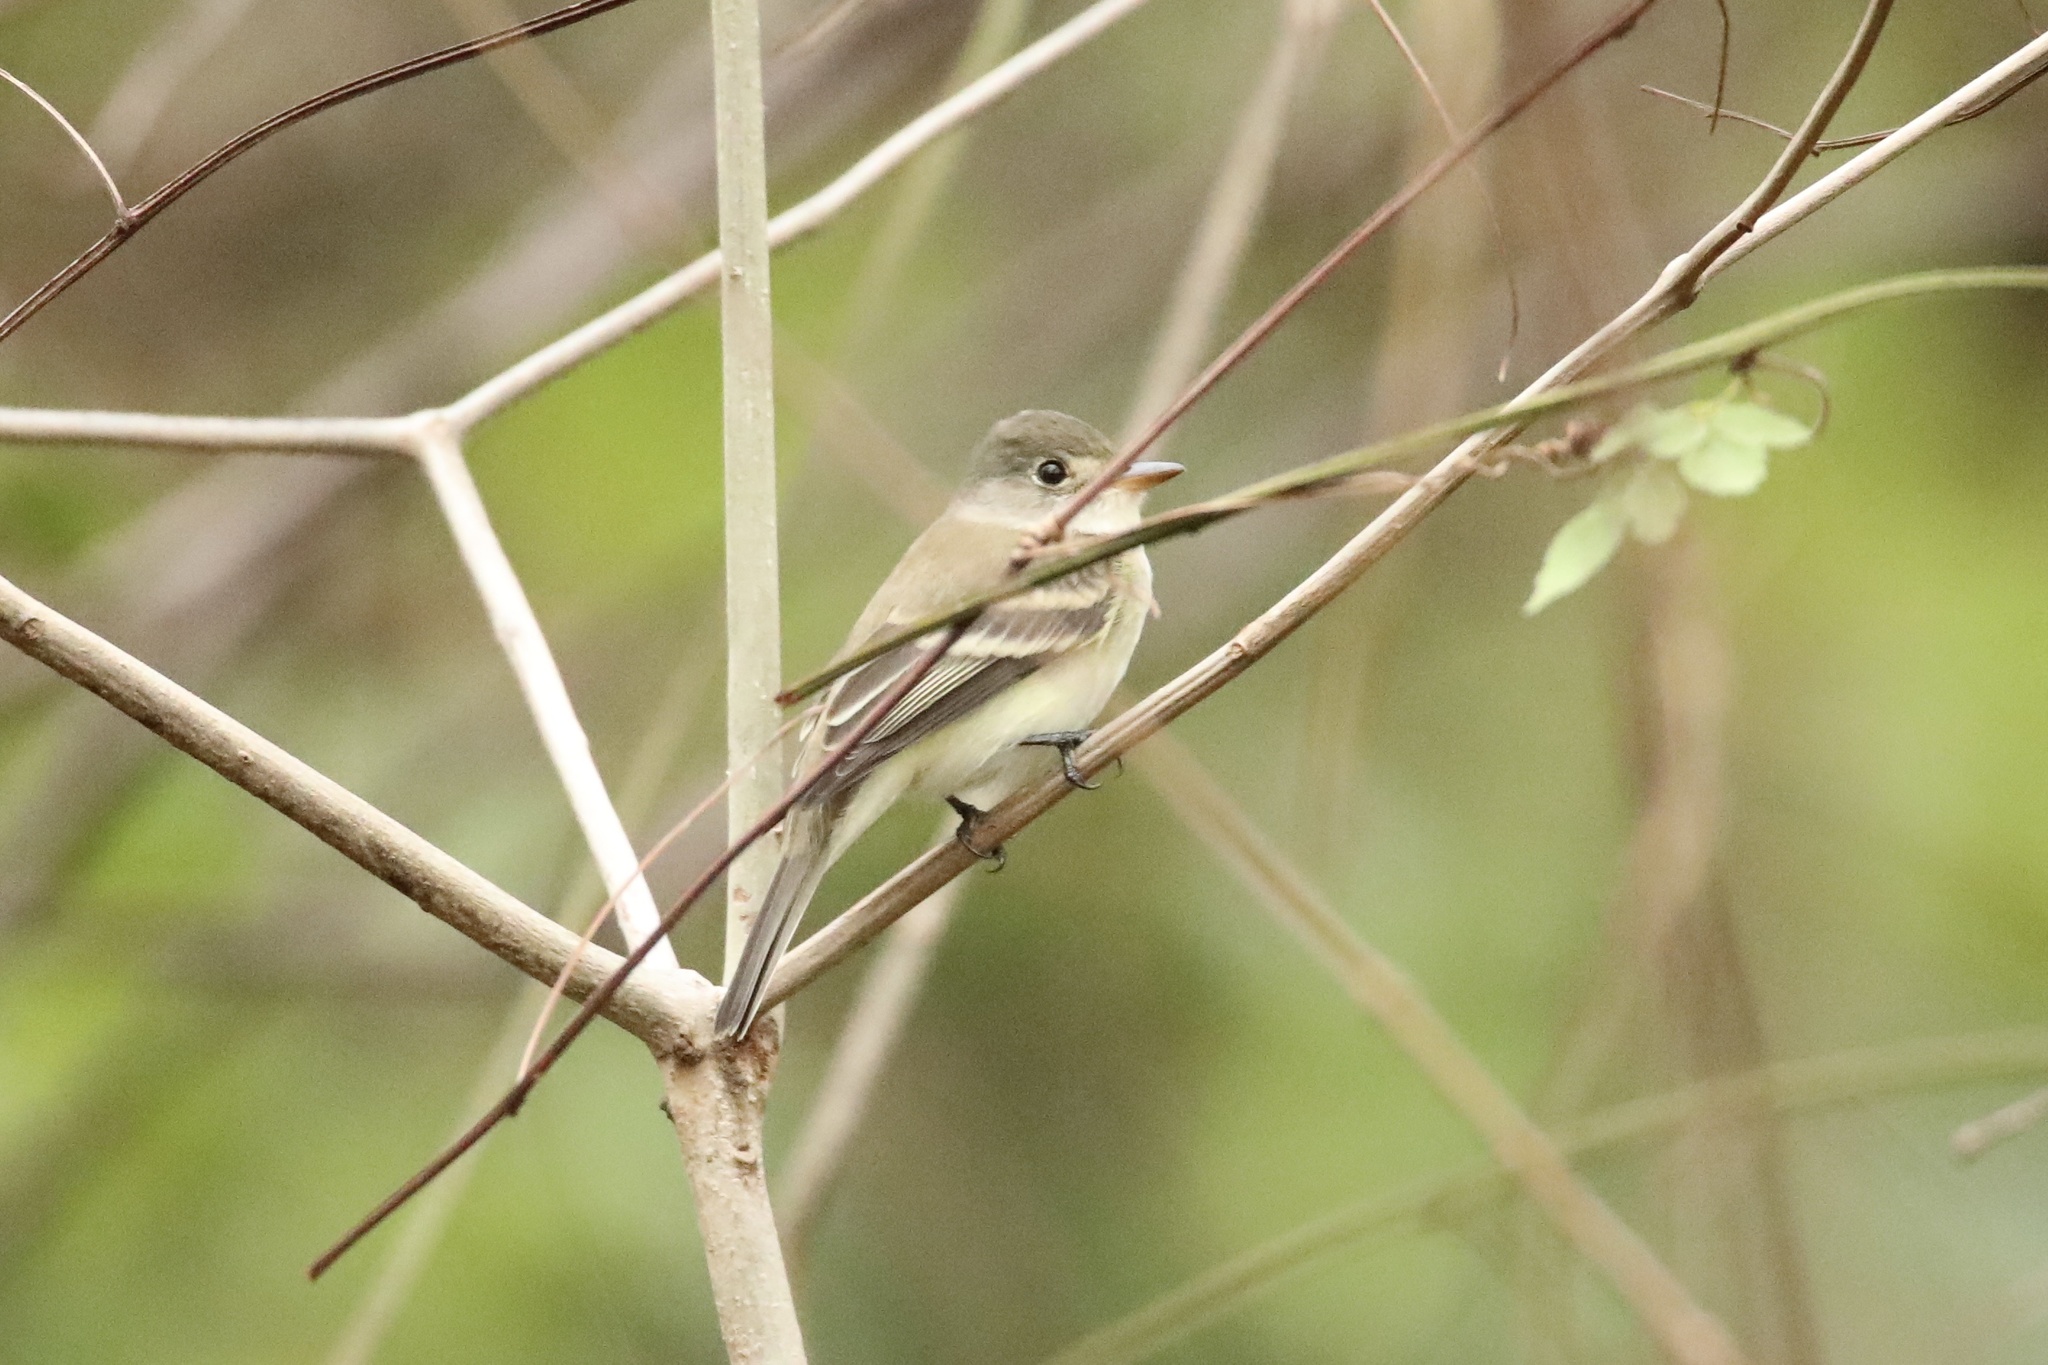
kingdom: Animalia
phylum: Chordata
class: Aves
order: Passeriformes
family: Tyrannidae
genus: Empidonax
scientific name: Empidonax virescens
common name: Acadian flycatcher
